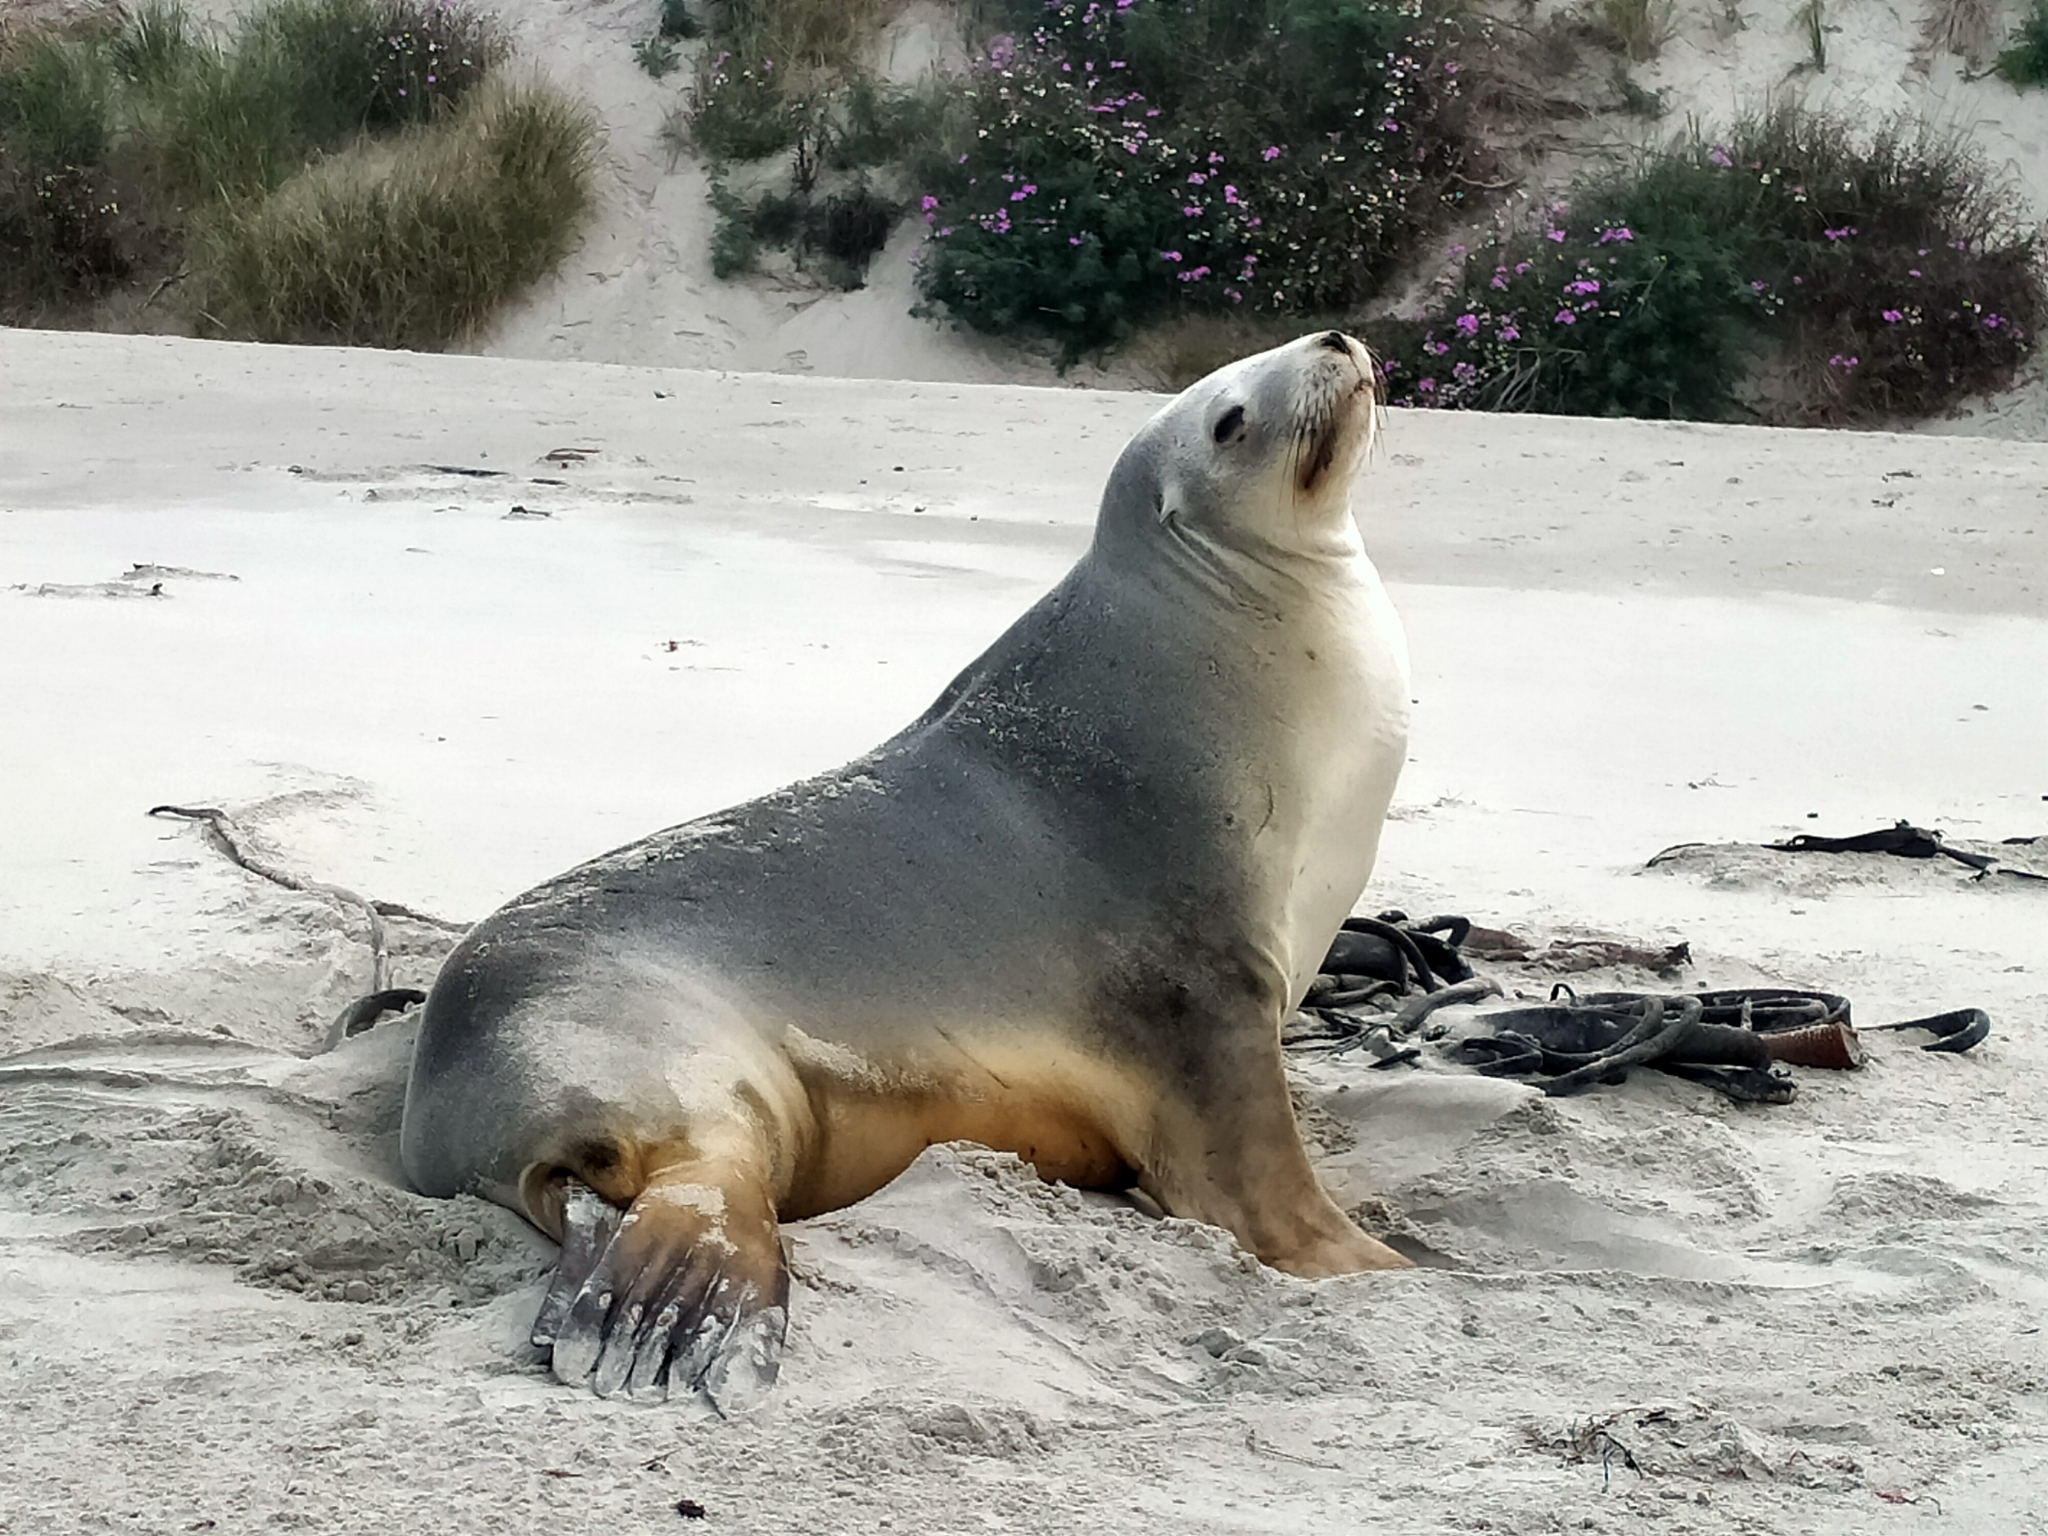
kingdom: Animalia
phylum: Chordata
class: Mammalia
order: Carnivora
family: Otariidae
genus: Phocarctos
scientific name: Phocarctos hookeri
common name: New zealand sea lion
